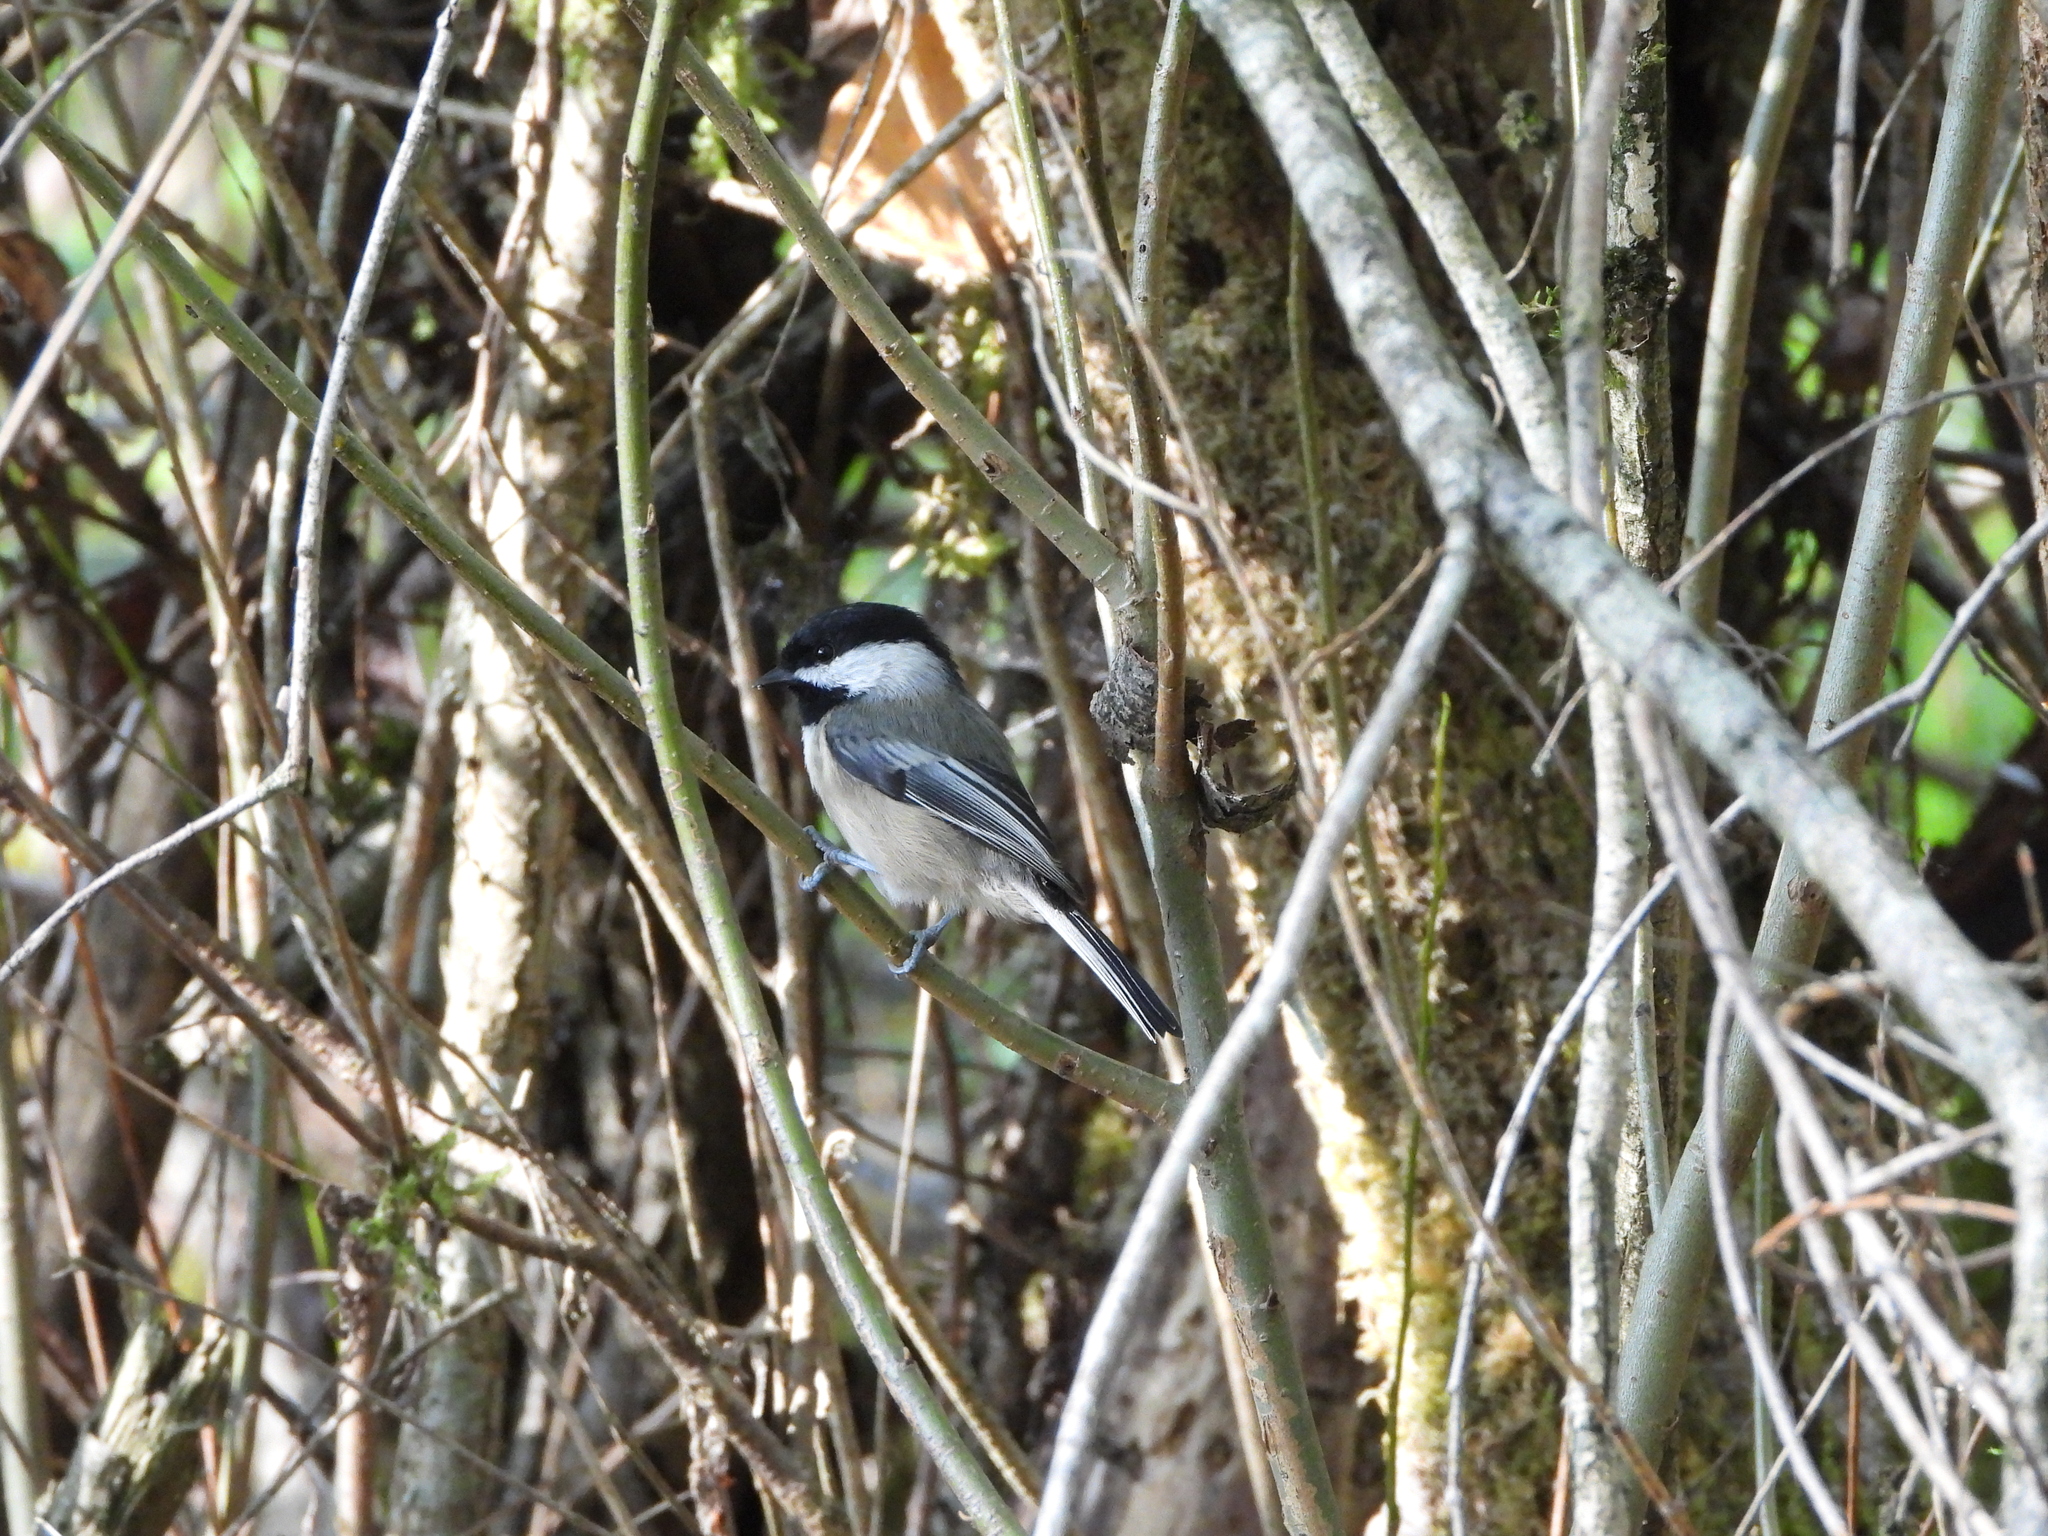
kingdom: Animalia
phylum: Chordata
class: Aves
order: Passeriformes
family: Paridae
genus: Poecile
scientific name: Poecile atricapillus
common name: Black-capped chickadee
